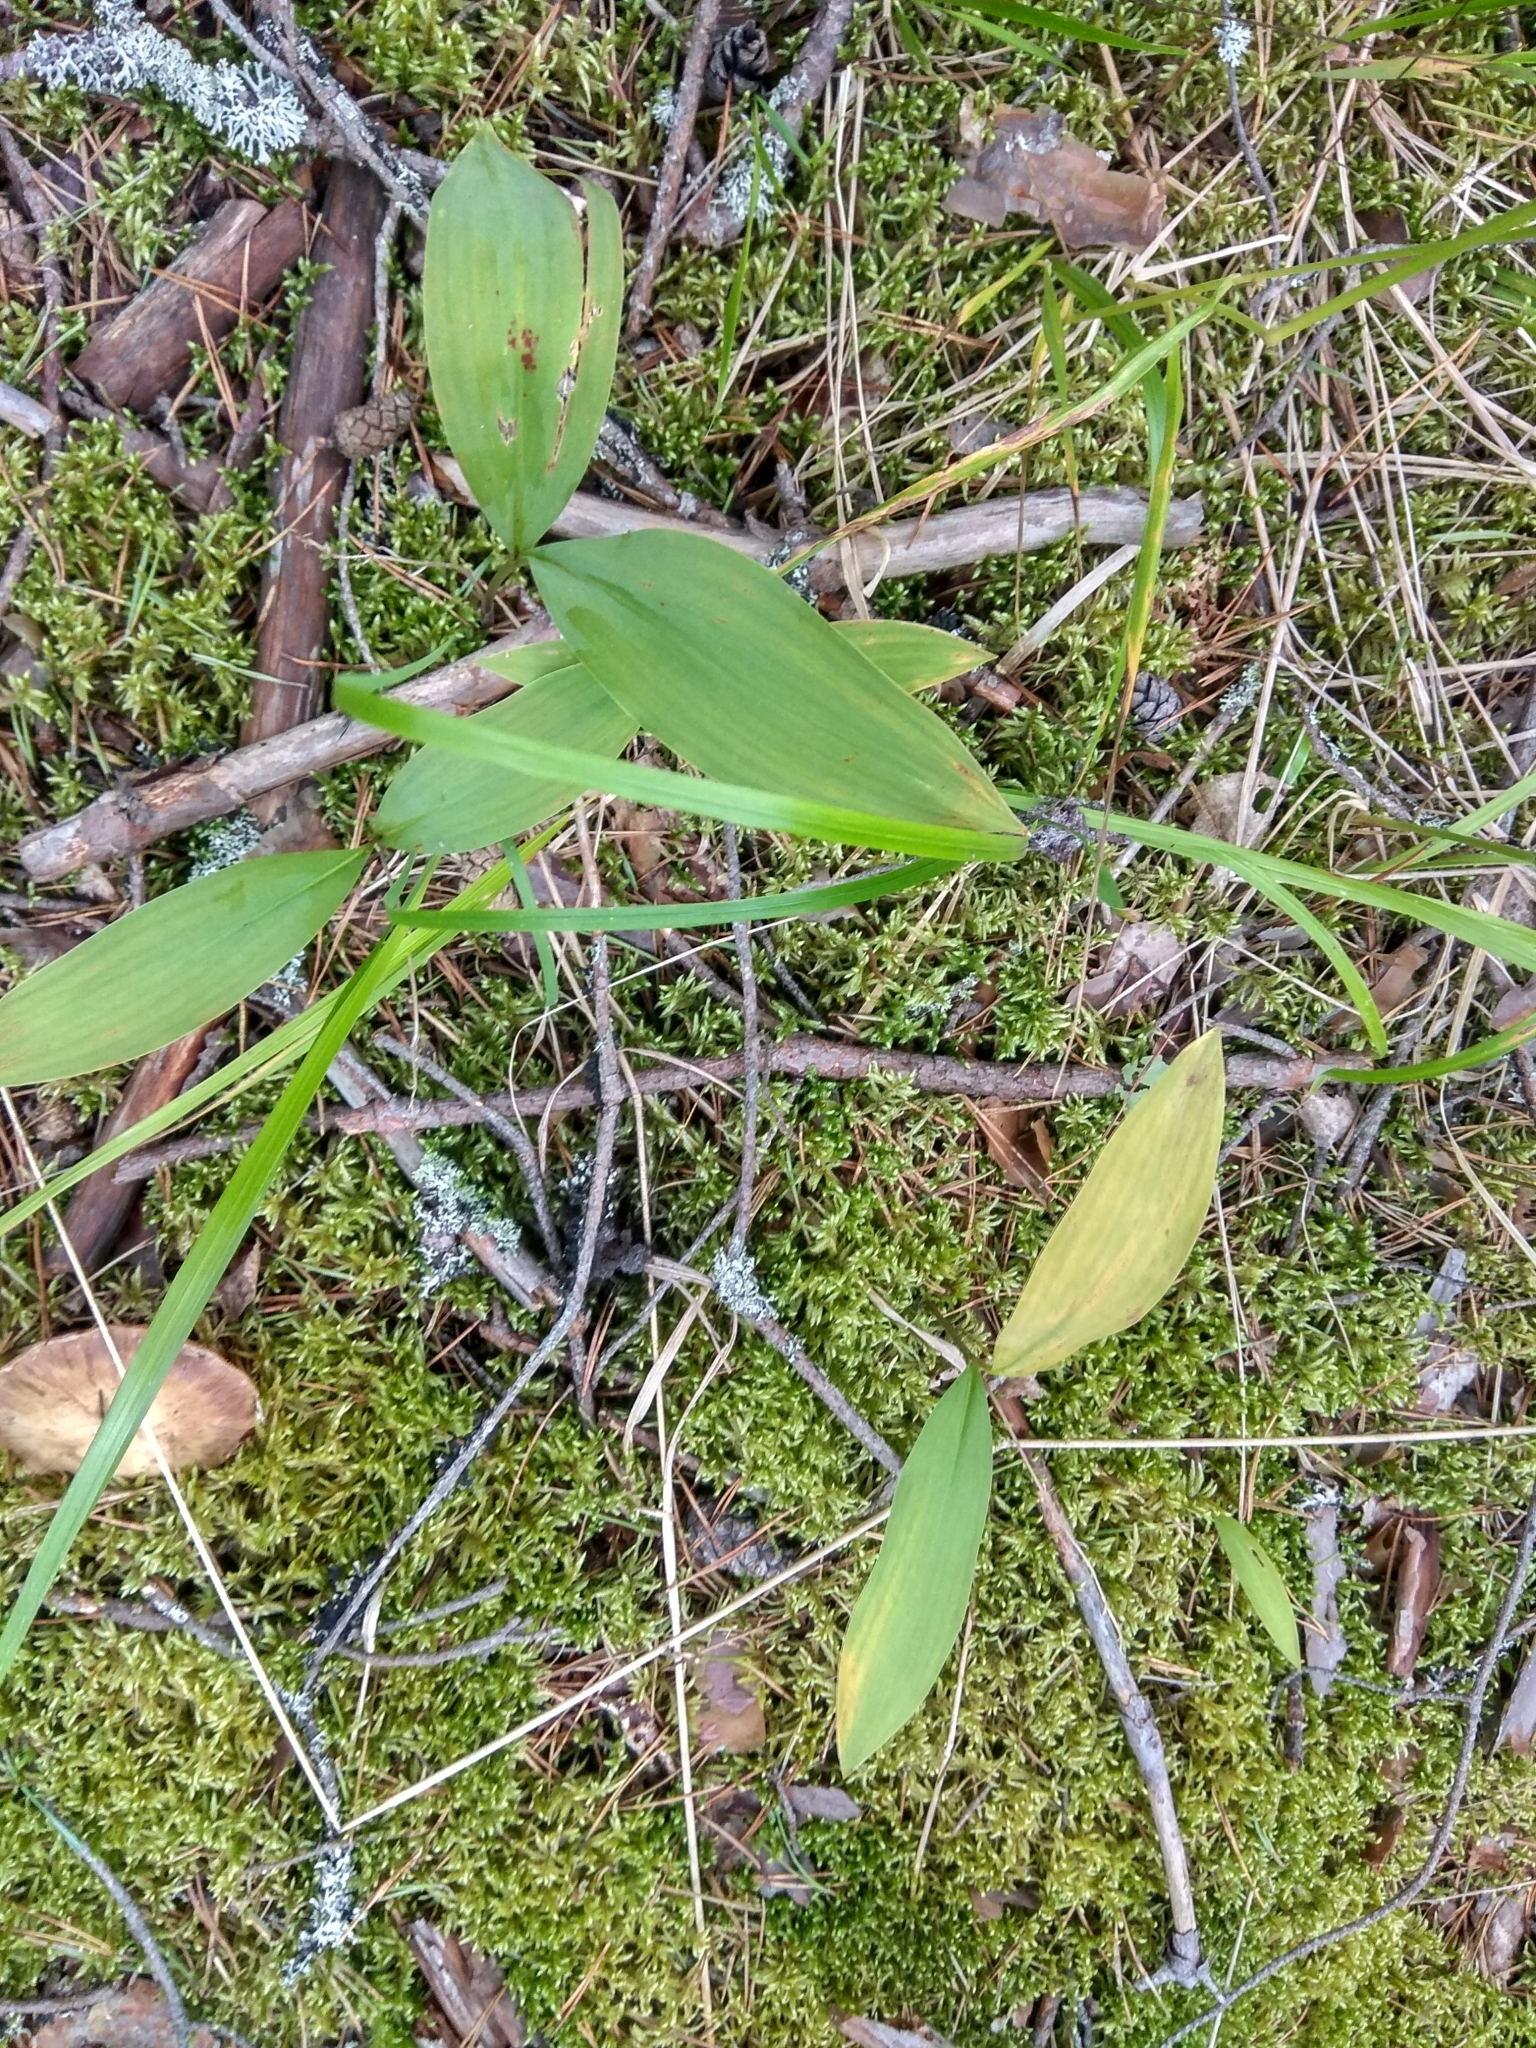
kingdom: Plantae
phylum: Tracheophyta
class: Liliopsida
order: Asparagales
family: Asparagaceae
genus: Convallaria
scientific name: Convallaria majalis
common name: Lily-of-the-valley
